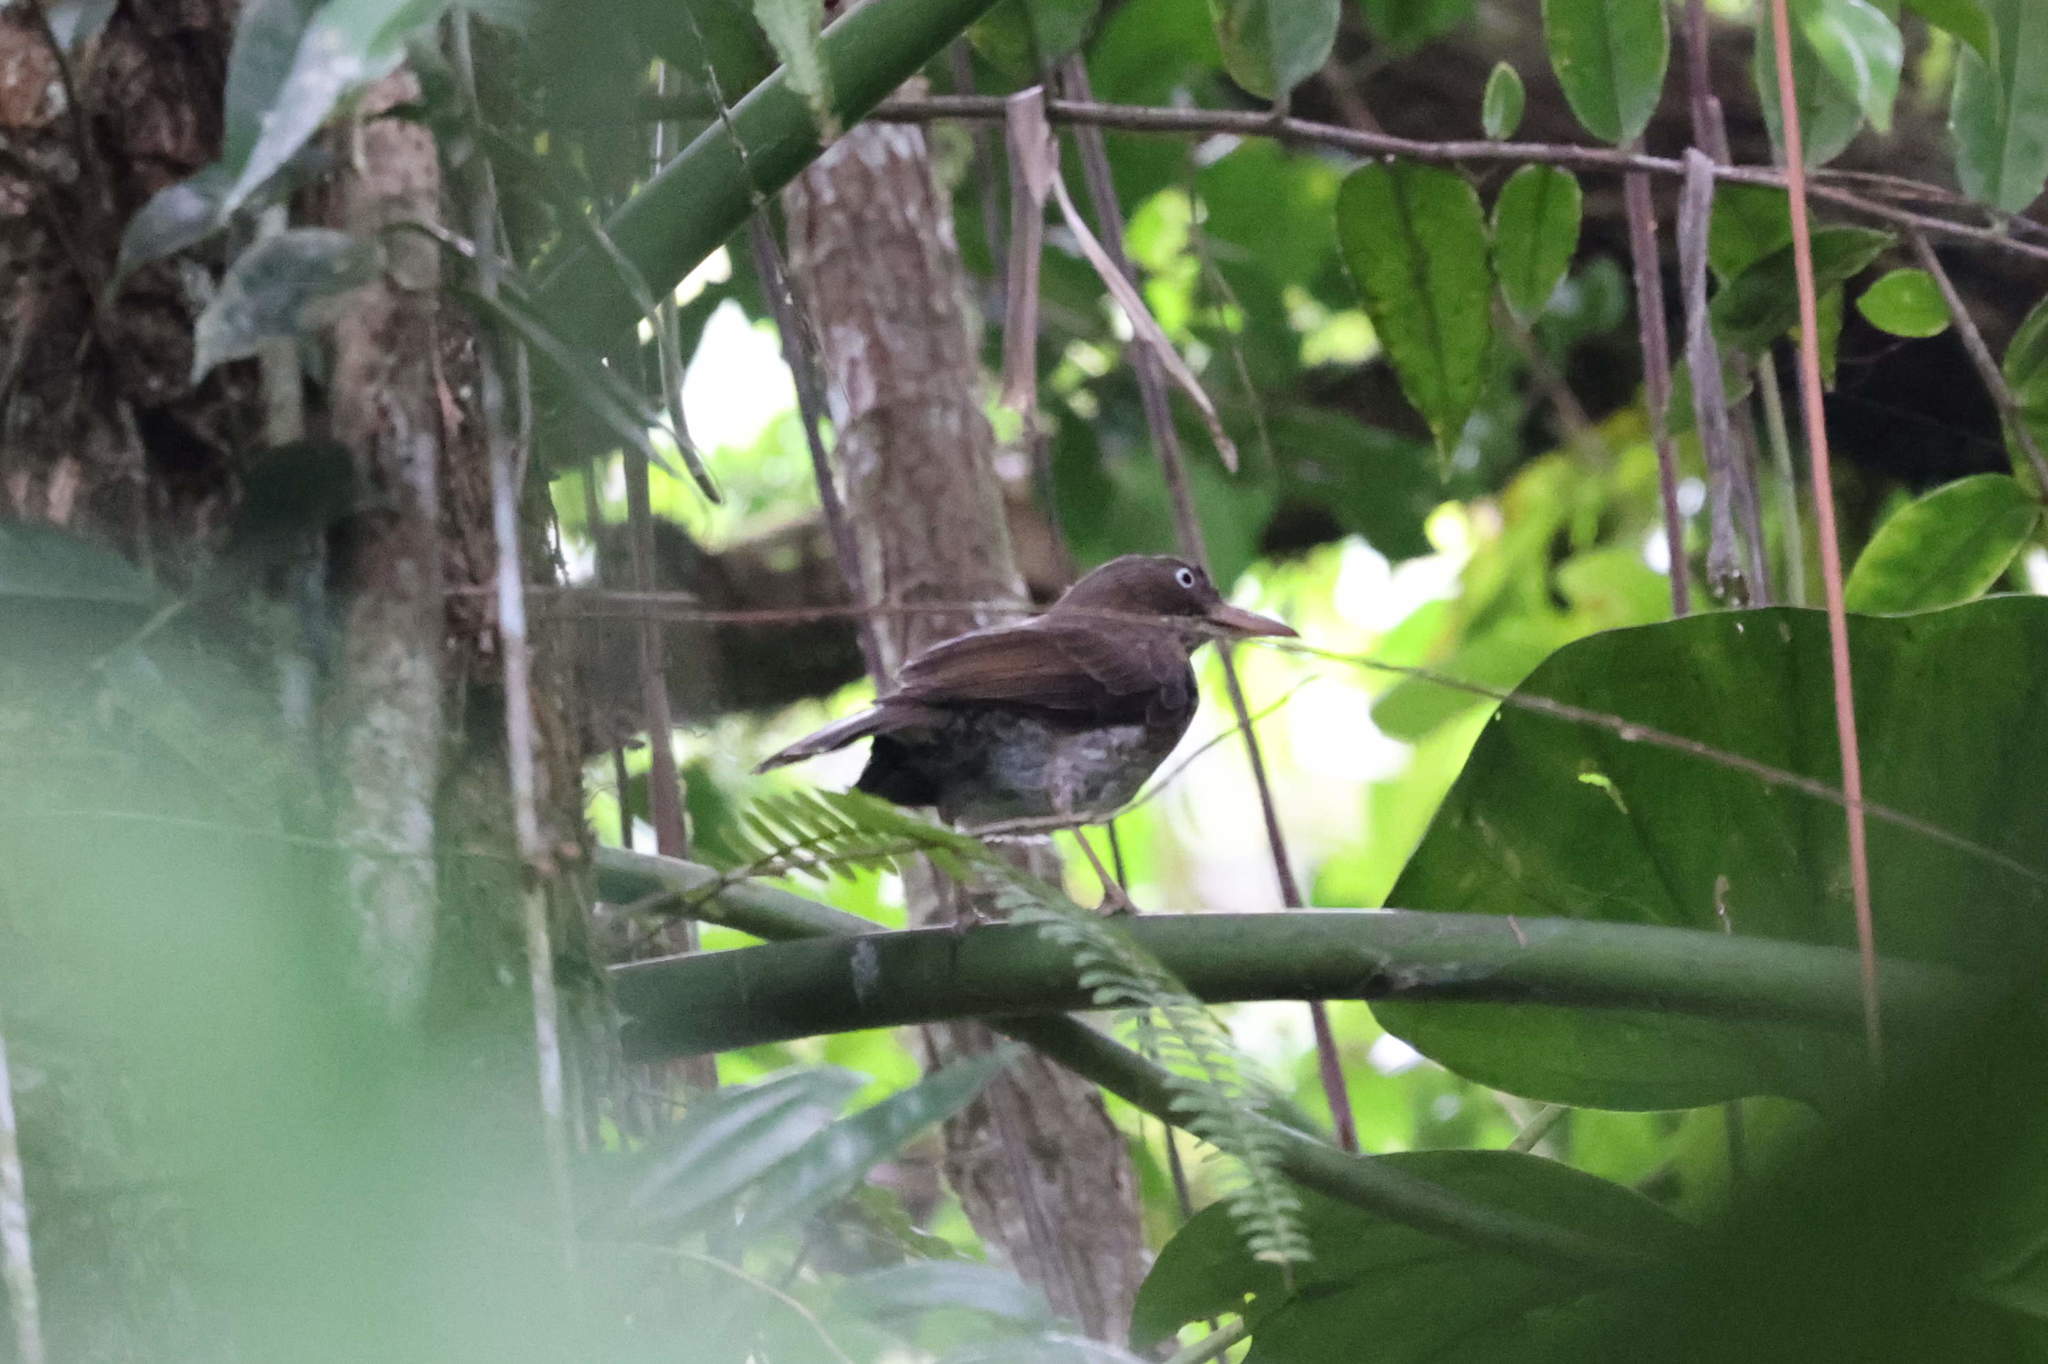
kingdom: Animalia
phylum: Chordata
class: Aves
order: Passeriformes
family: Mimidae
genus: Margarops
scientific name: Margarops fuscatus
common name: Pearly-eyed thrasher
